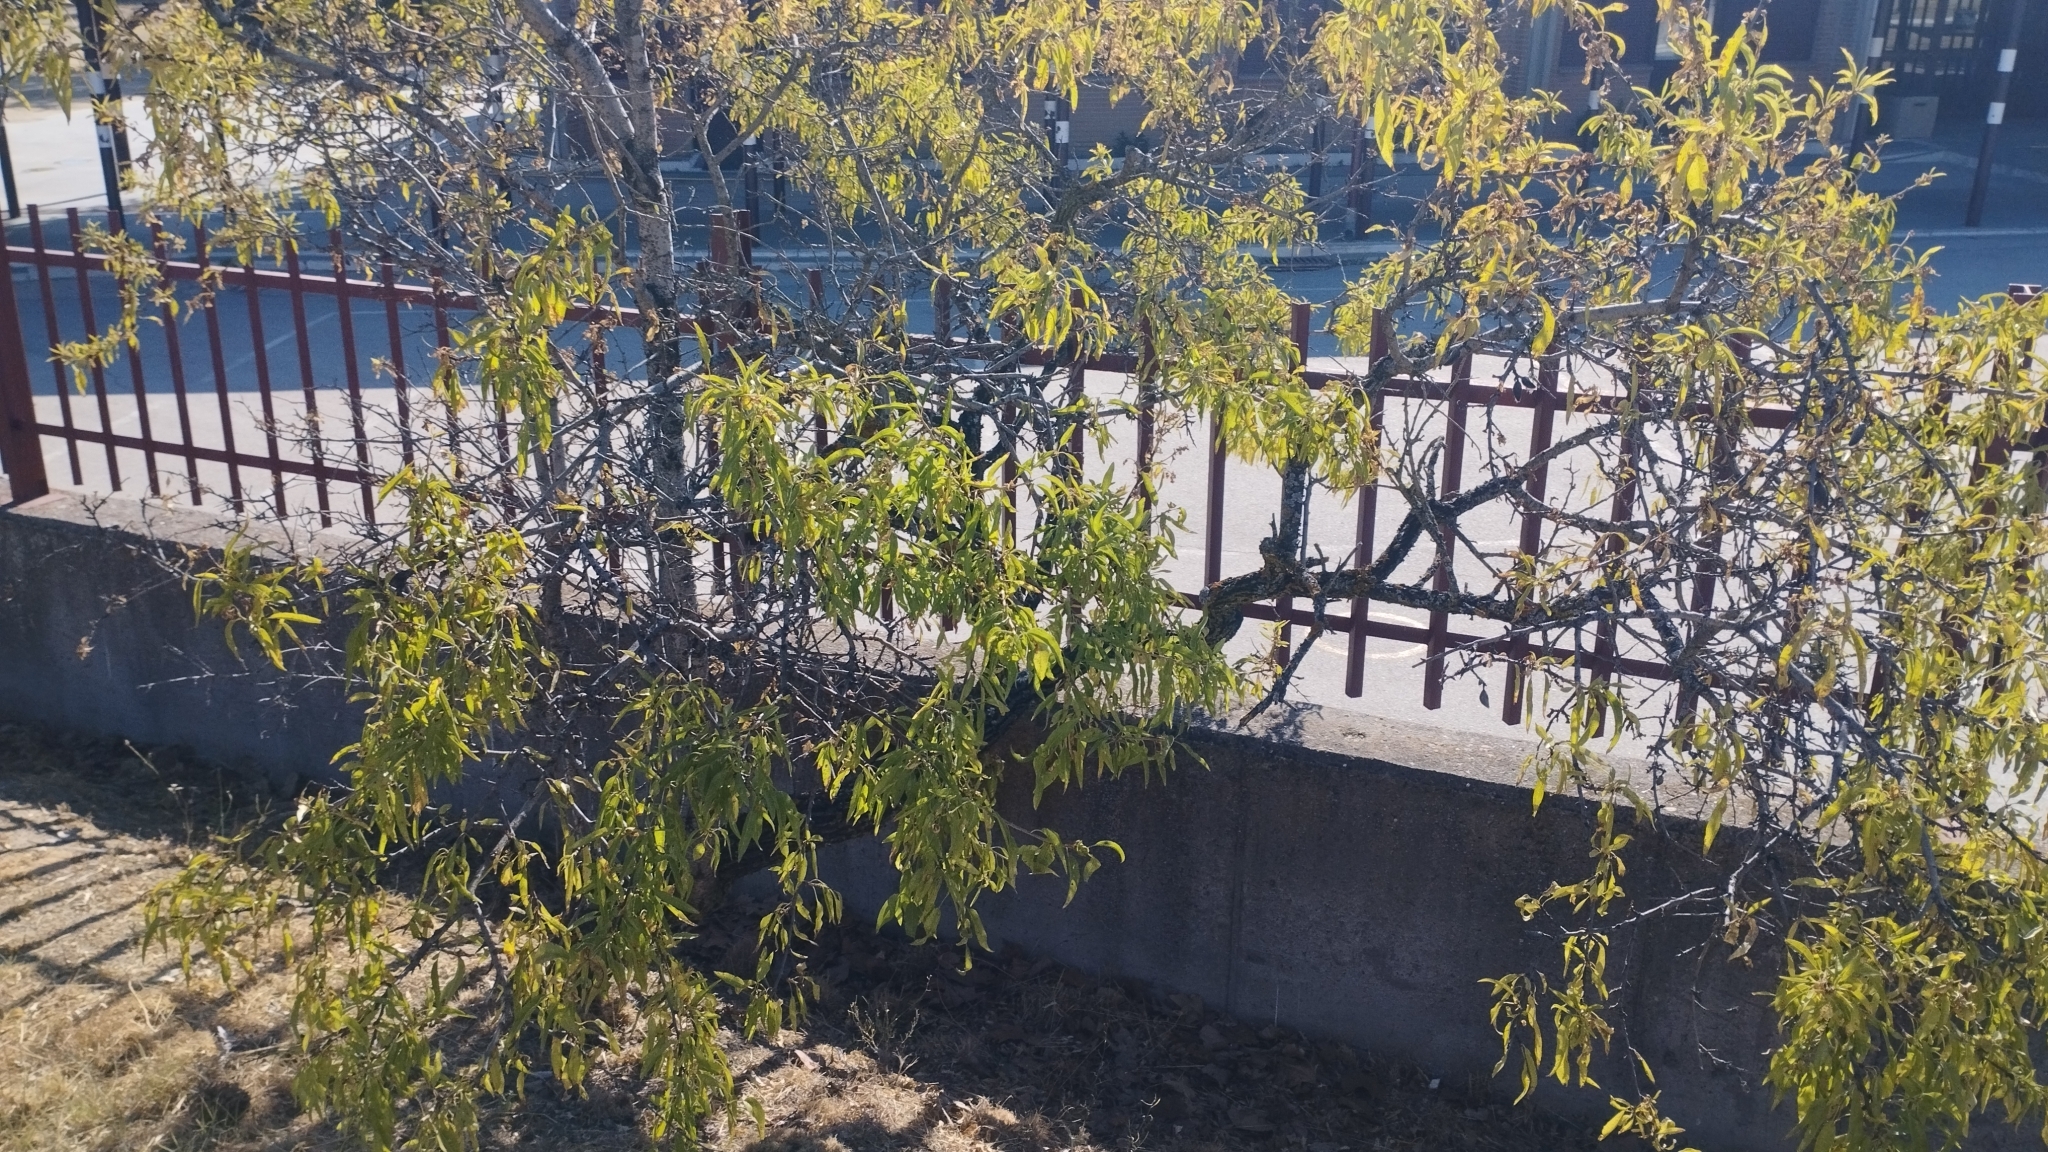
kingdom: Plantae
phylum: Tracheophyta
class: Magnoliopsida
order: Rosales
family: Rosaceae
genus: Prunus
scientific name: Prunus amygdalus
